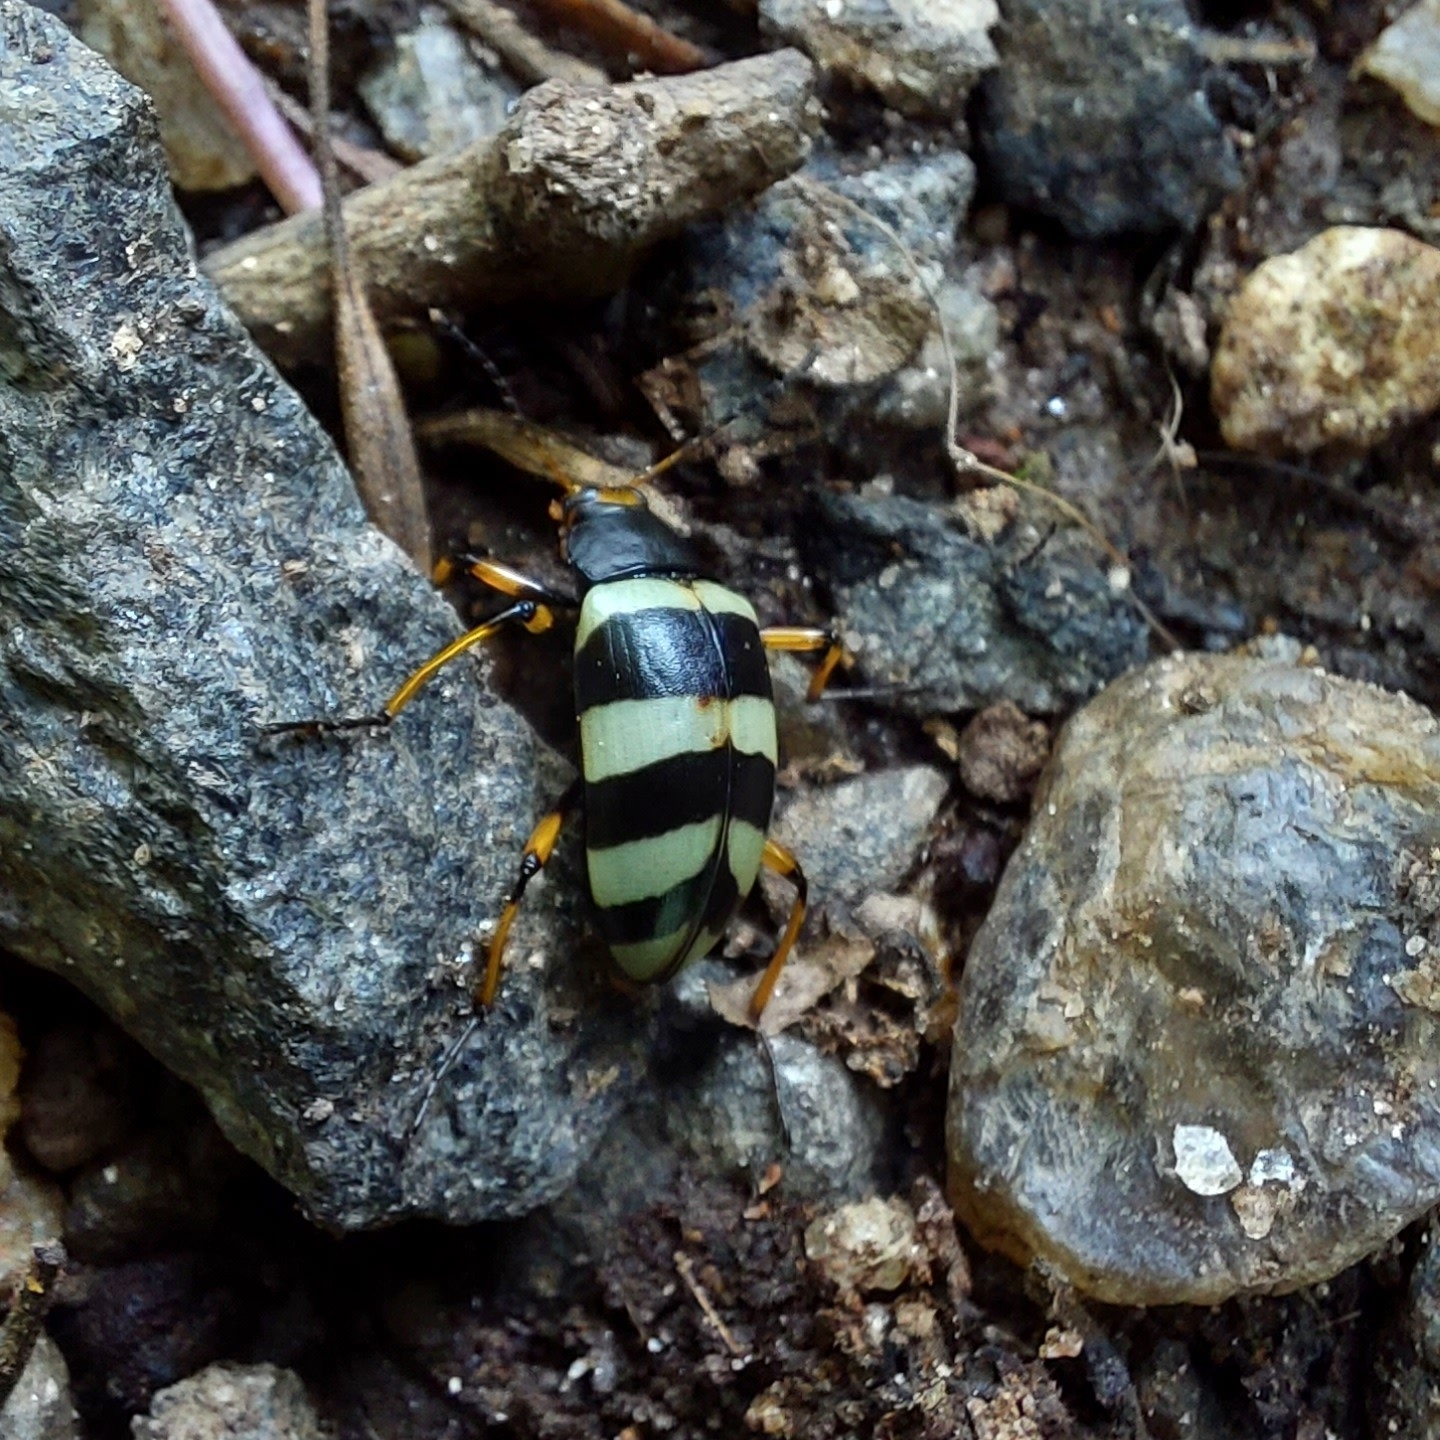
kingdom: Animalia
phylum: Arthropoda
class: Insecta
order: Coleoptera
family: Tenebrionidae
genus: Poecilesthus
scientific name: Poecilesthus
